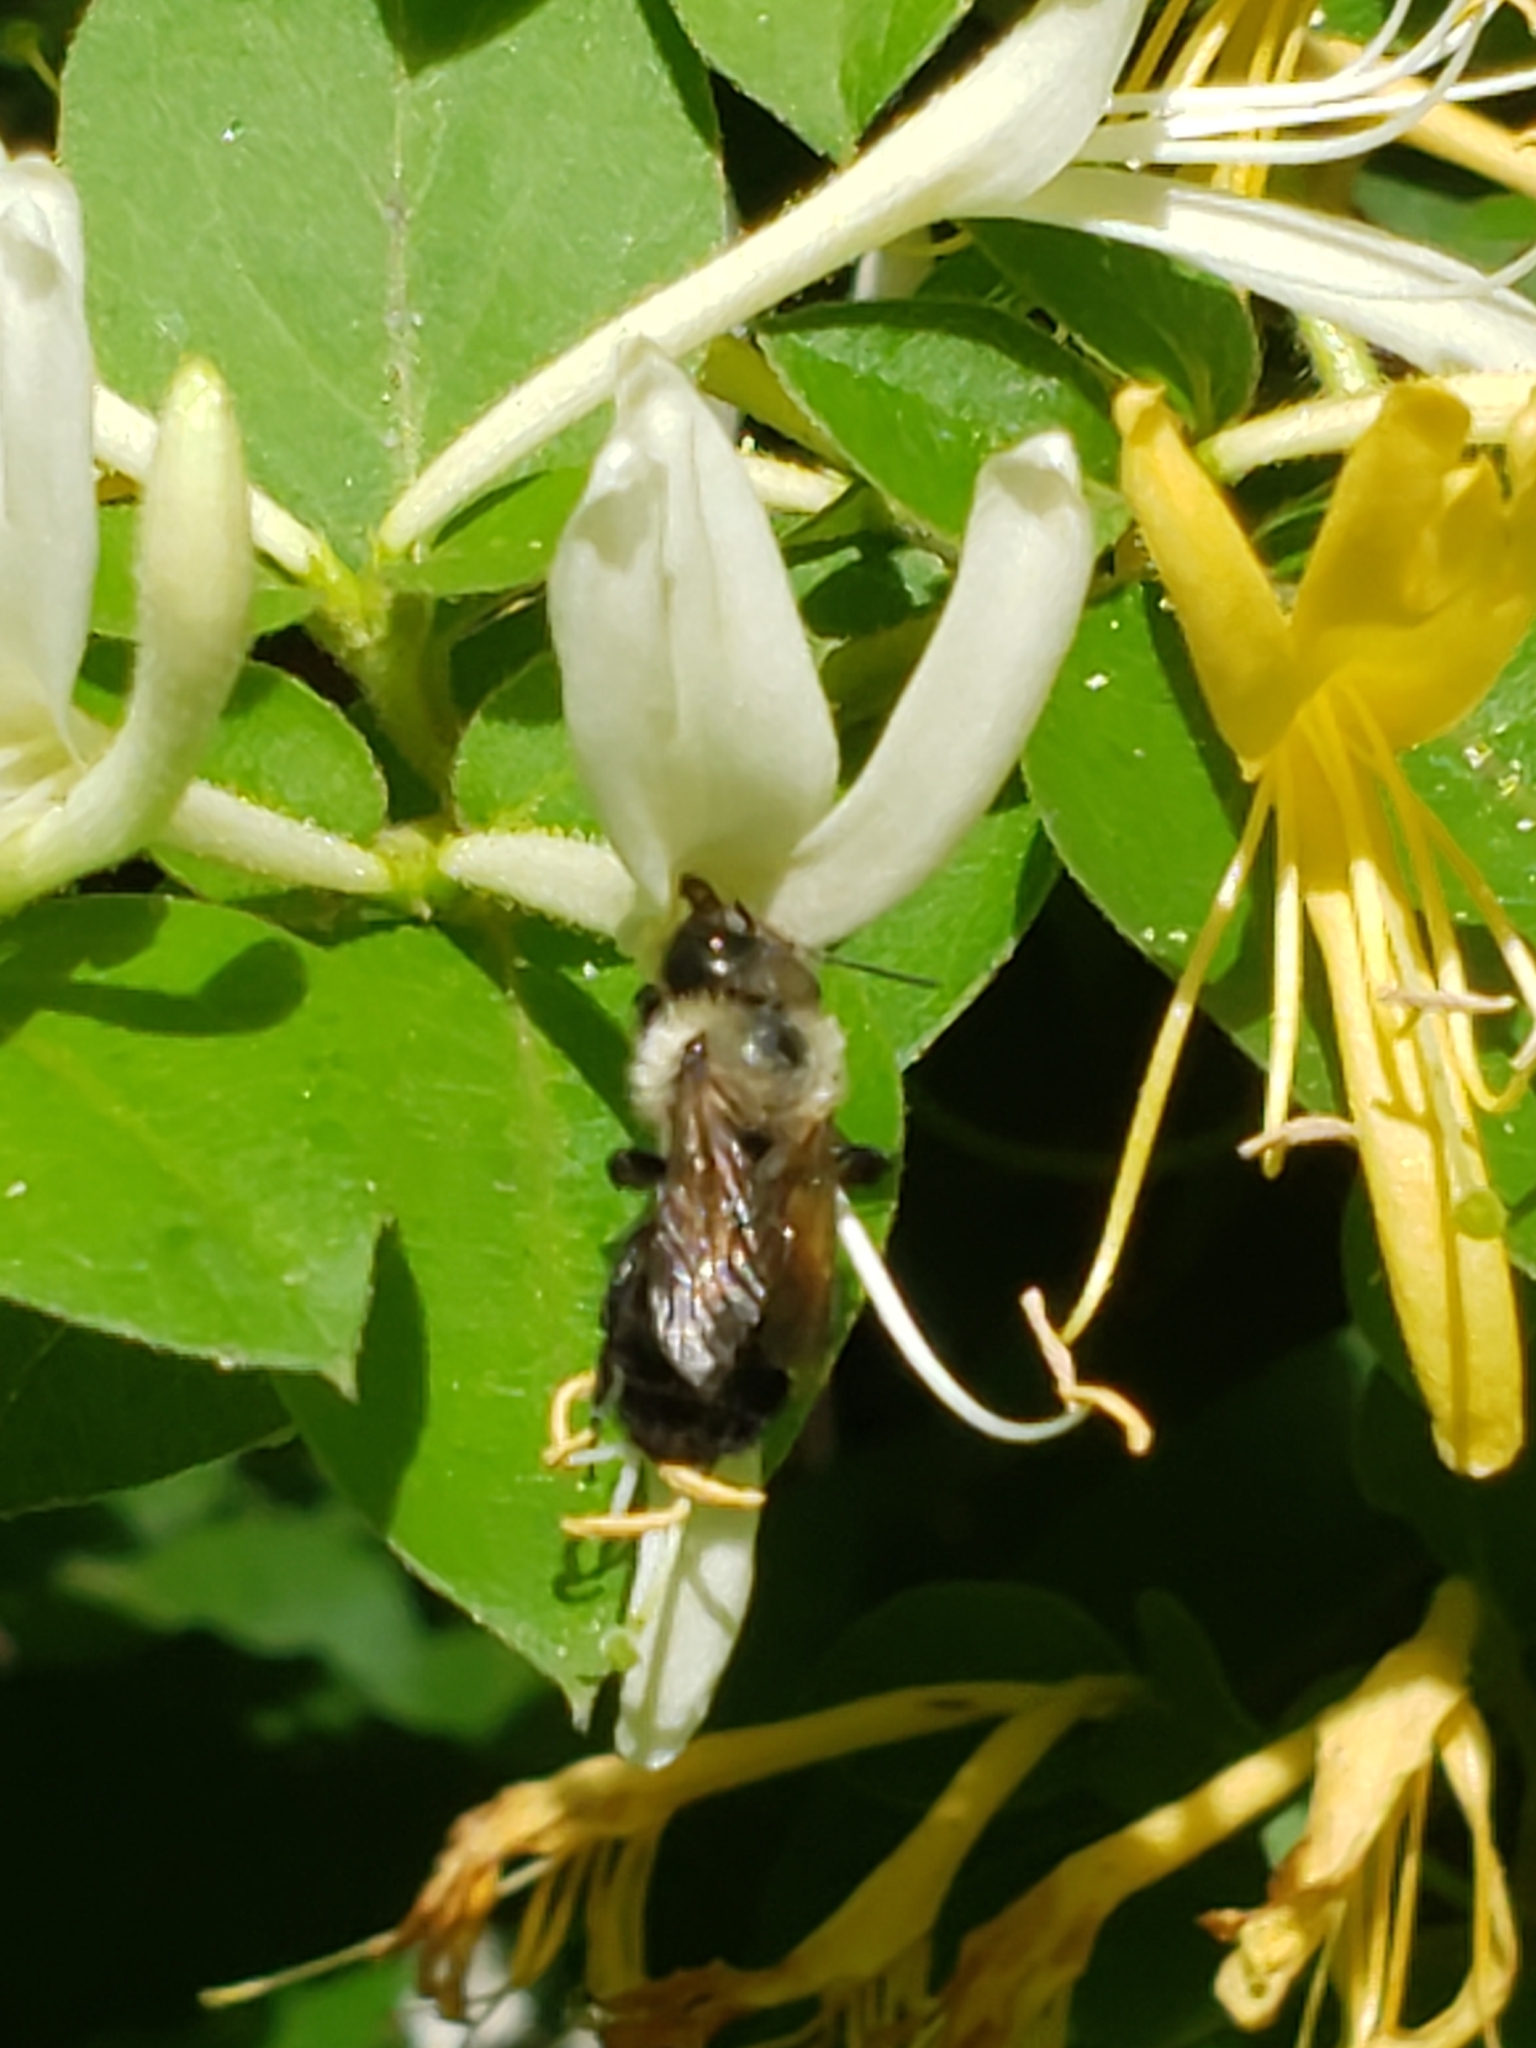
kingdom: Animalia
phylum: Arthropoda
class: Insecta
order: Hymenoptera
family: Megachilidae
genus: Osmia
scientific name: Osmia bucephala
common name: Bufflehead mason bee
